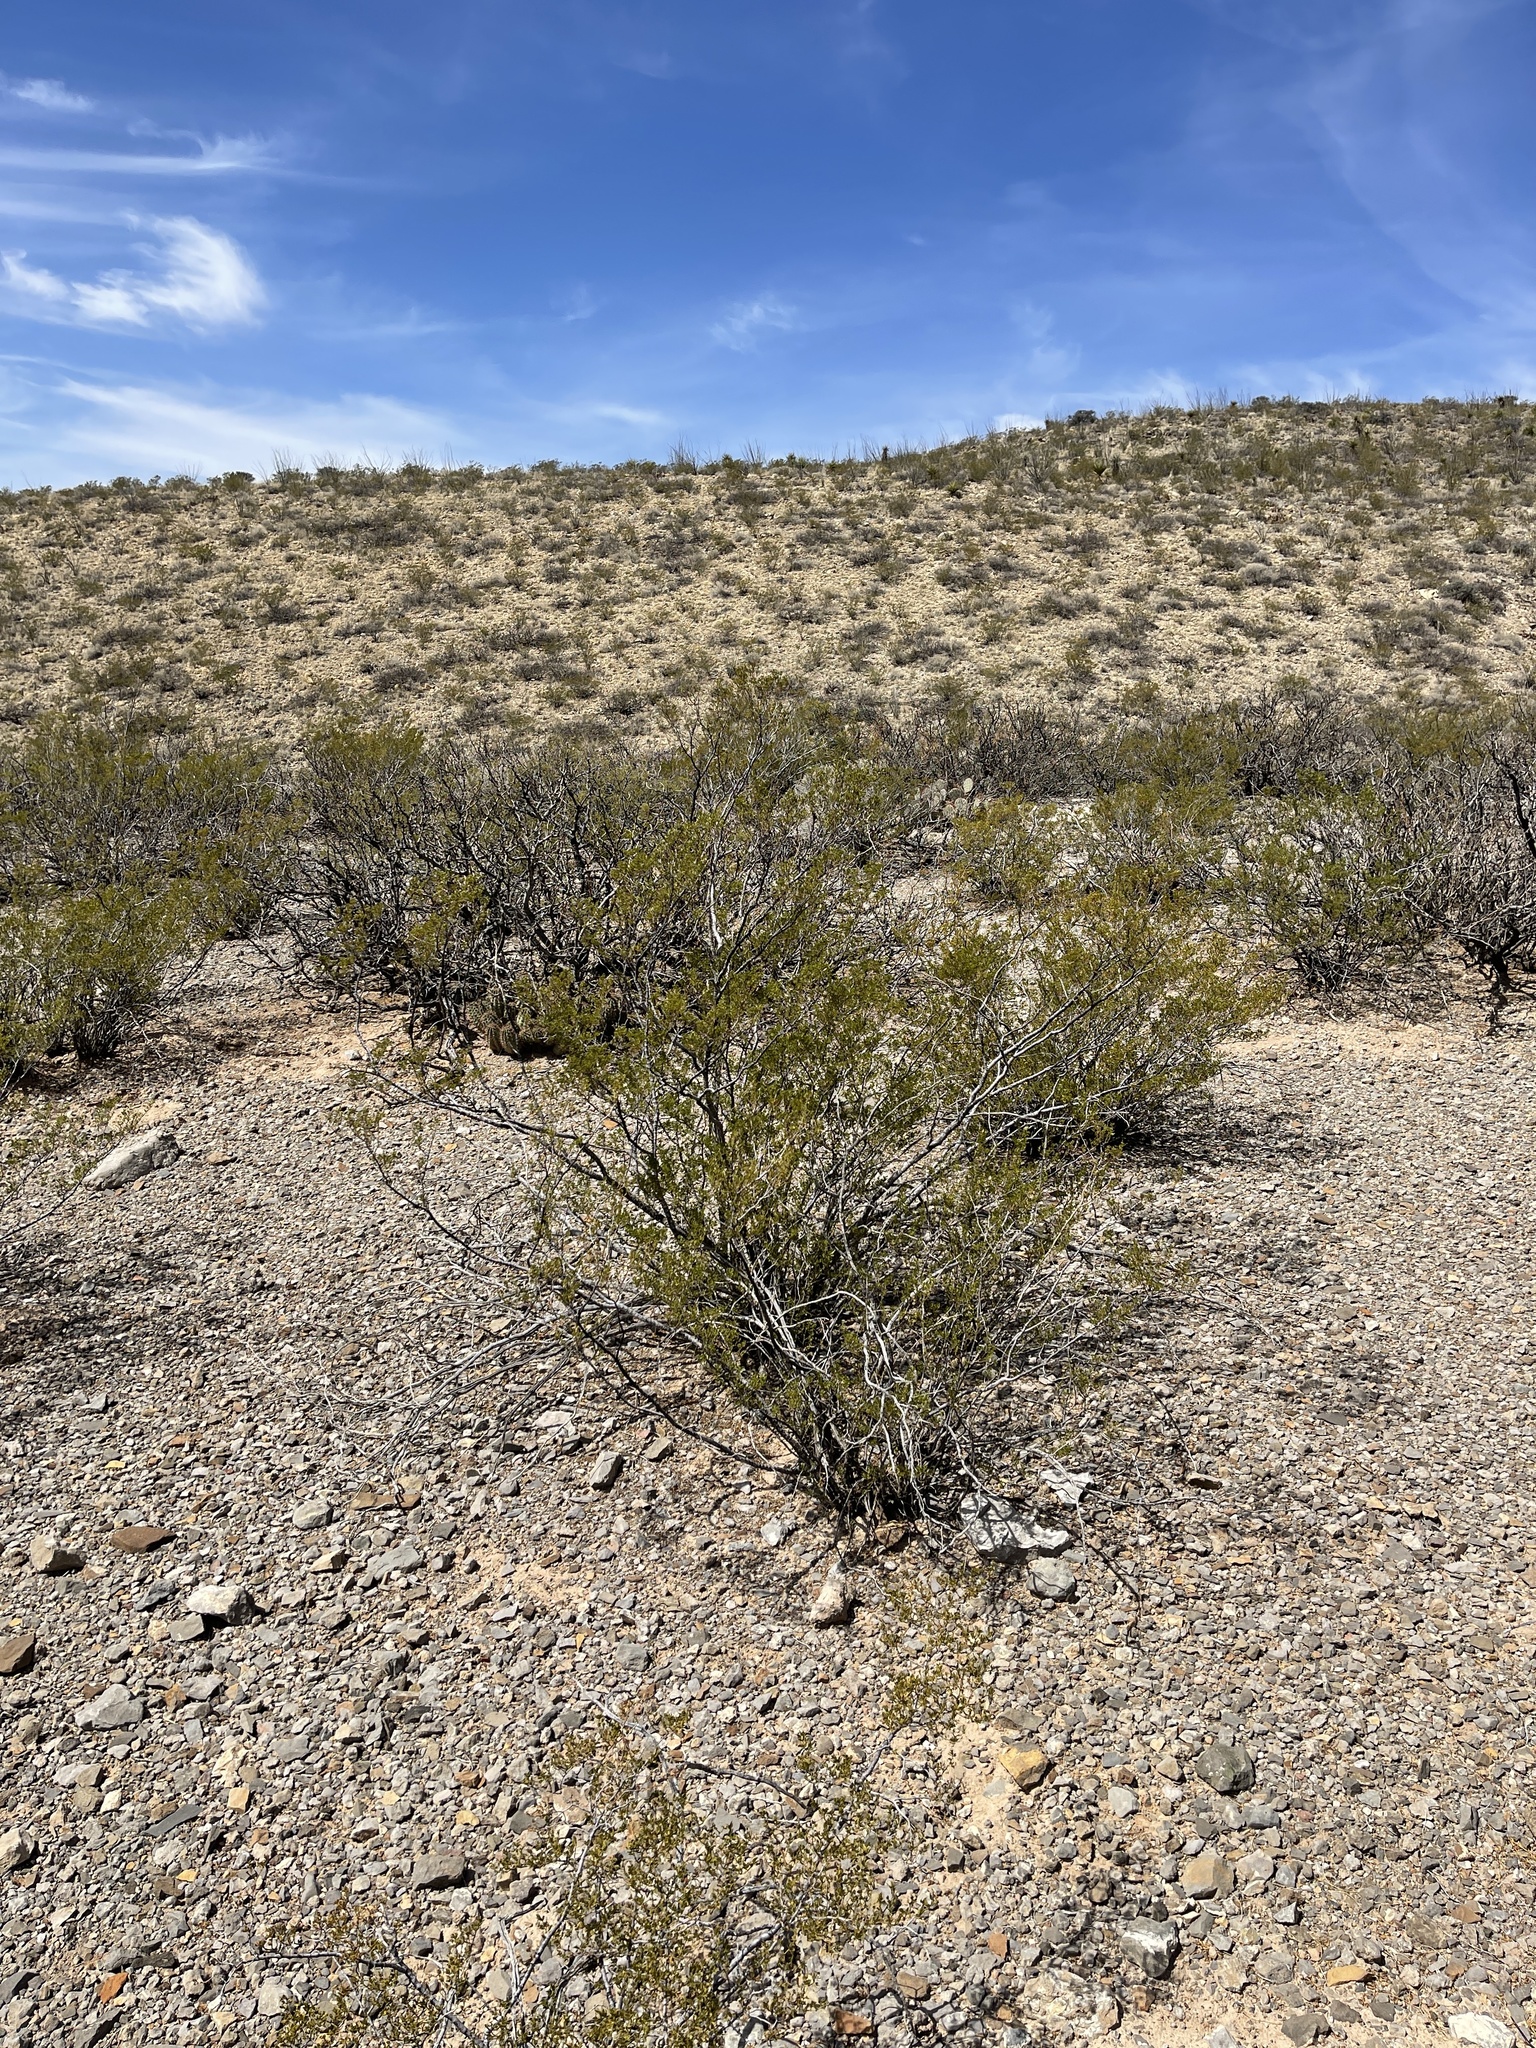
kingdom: Plantae
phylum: Tracheophyta
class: Magnoliopsida
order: Zygophyllales
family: Zygophyllaceae
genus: Larrea
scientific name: Larrea tridentata
